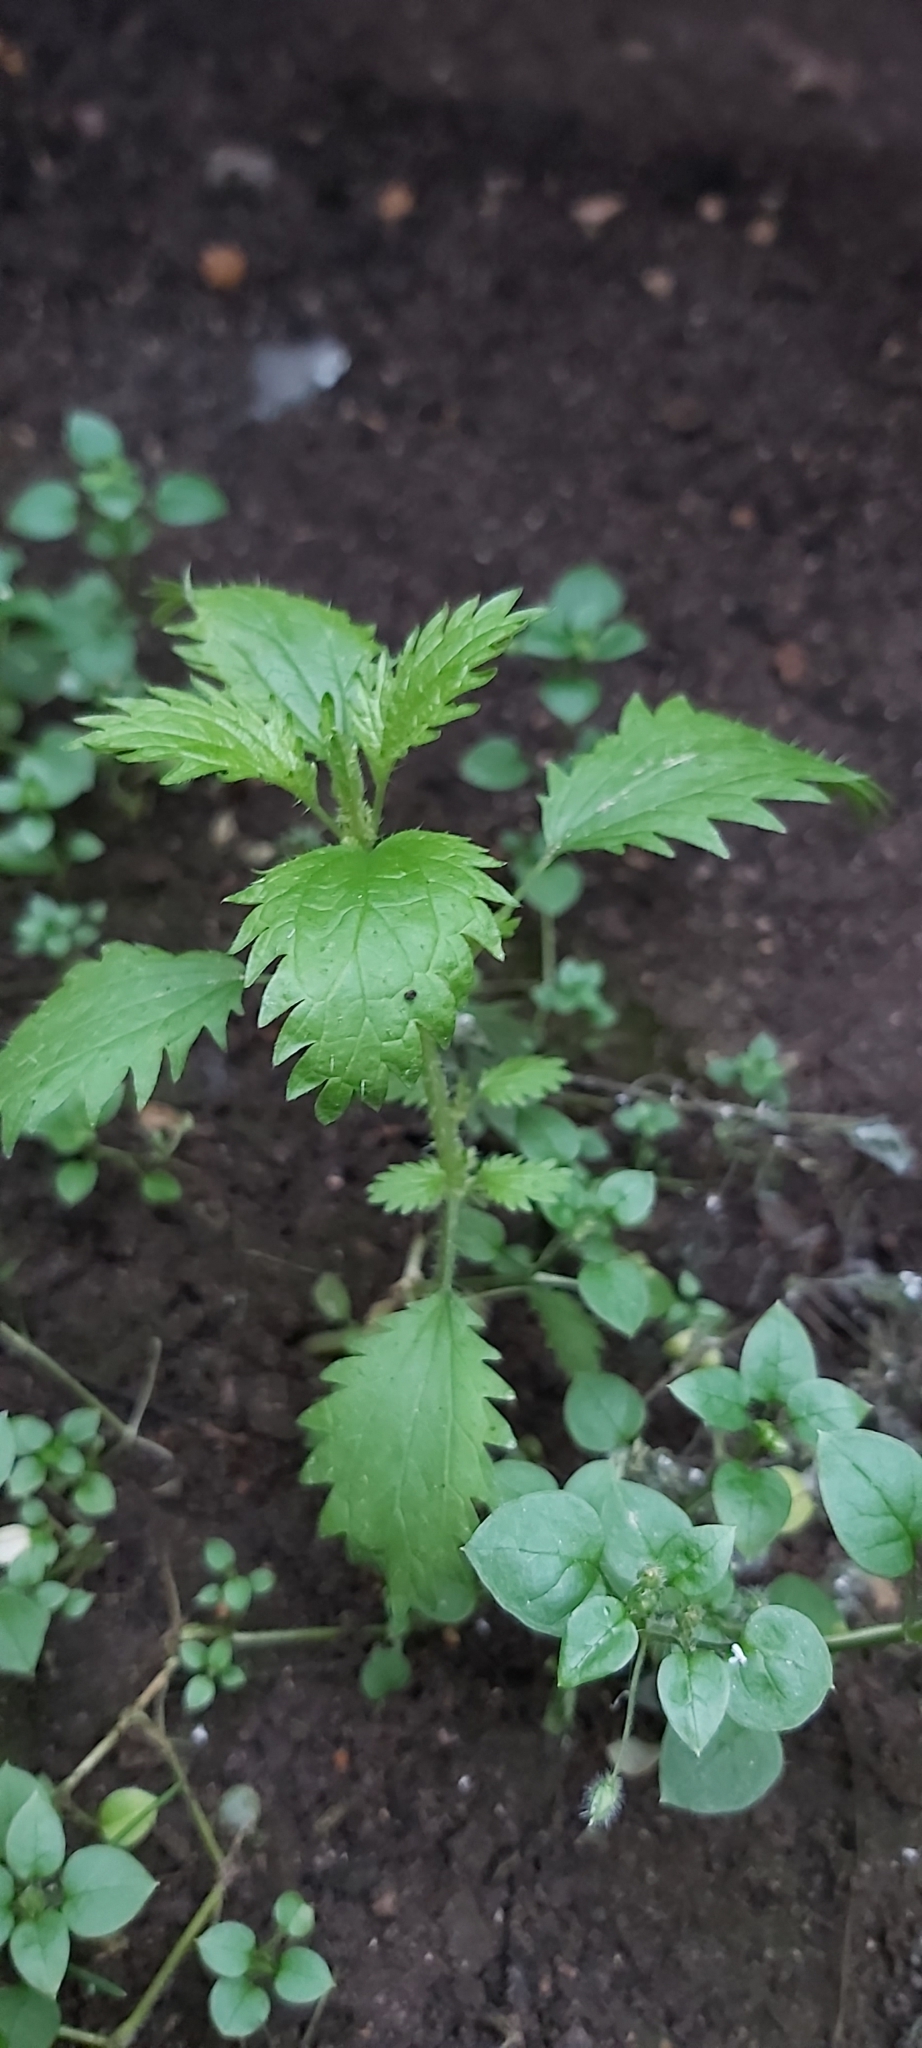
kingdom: Plantae
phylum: Tracheophyta
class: Magnoliopsida
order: Rosales
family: Urticaceae
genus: Urtica
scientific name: Urtica urens
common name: Dwarf nettle
